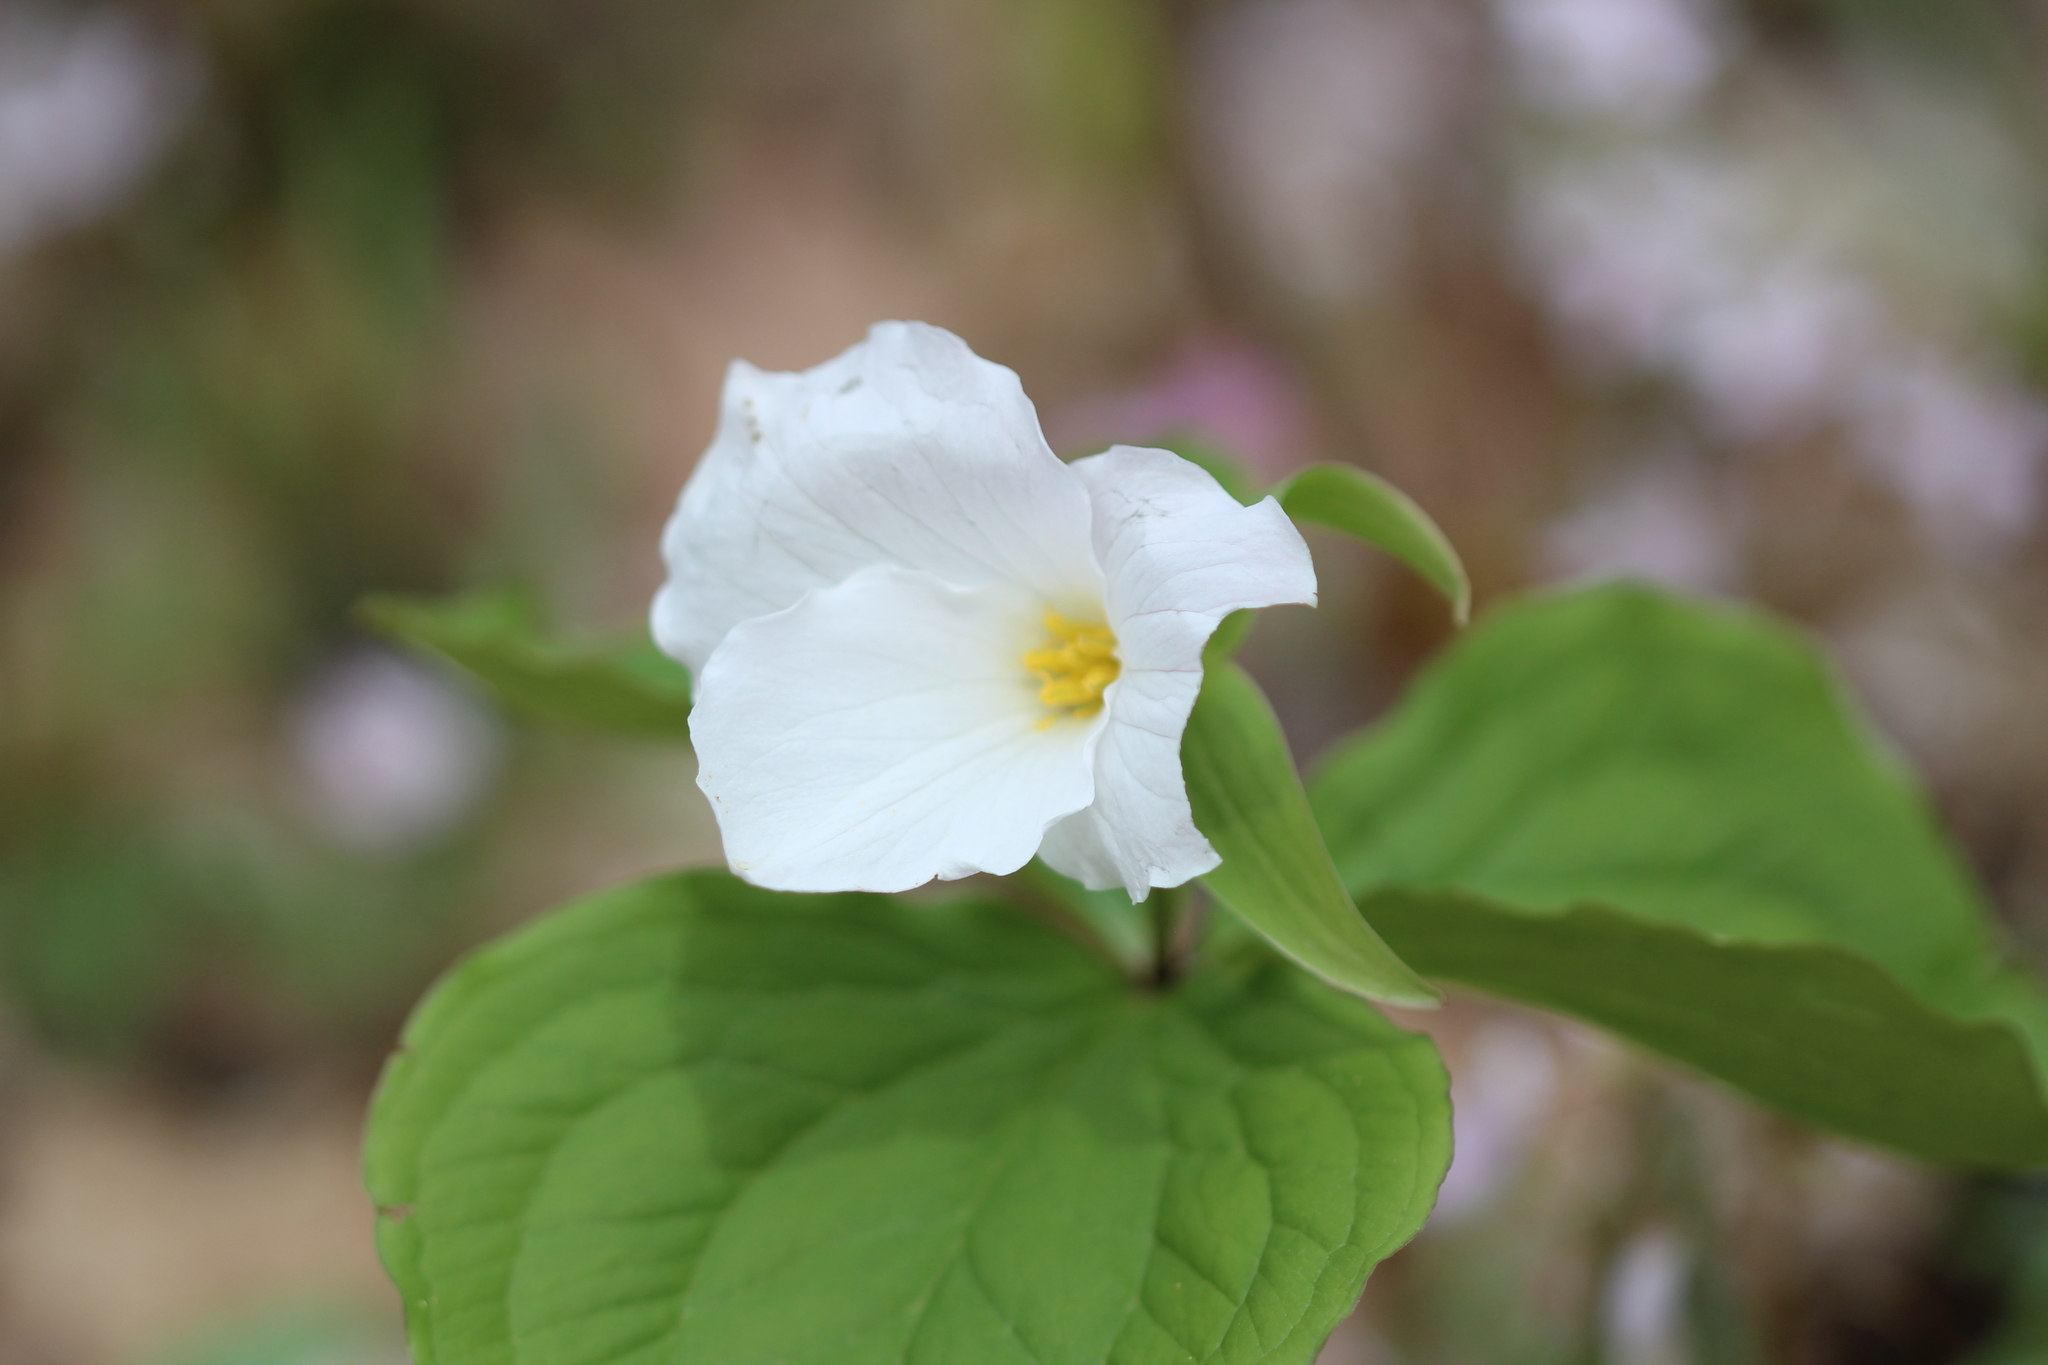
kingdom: Plantae
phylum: Tracheophyta
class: Liliopsida
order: Liliales
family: Melanthiaceae
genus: Trillium
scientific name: Trillium grandiflorum
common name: Great white trillium
